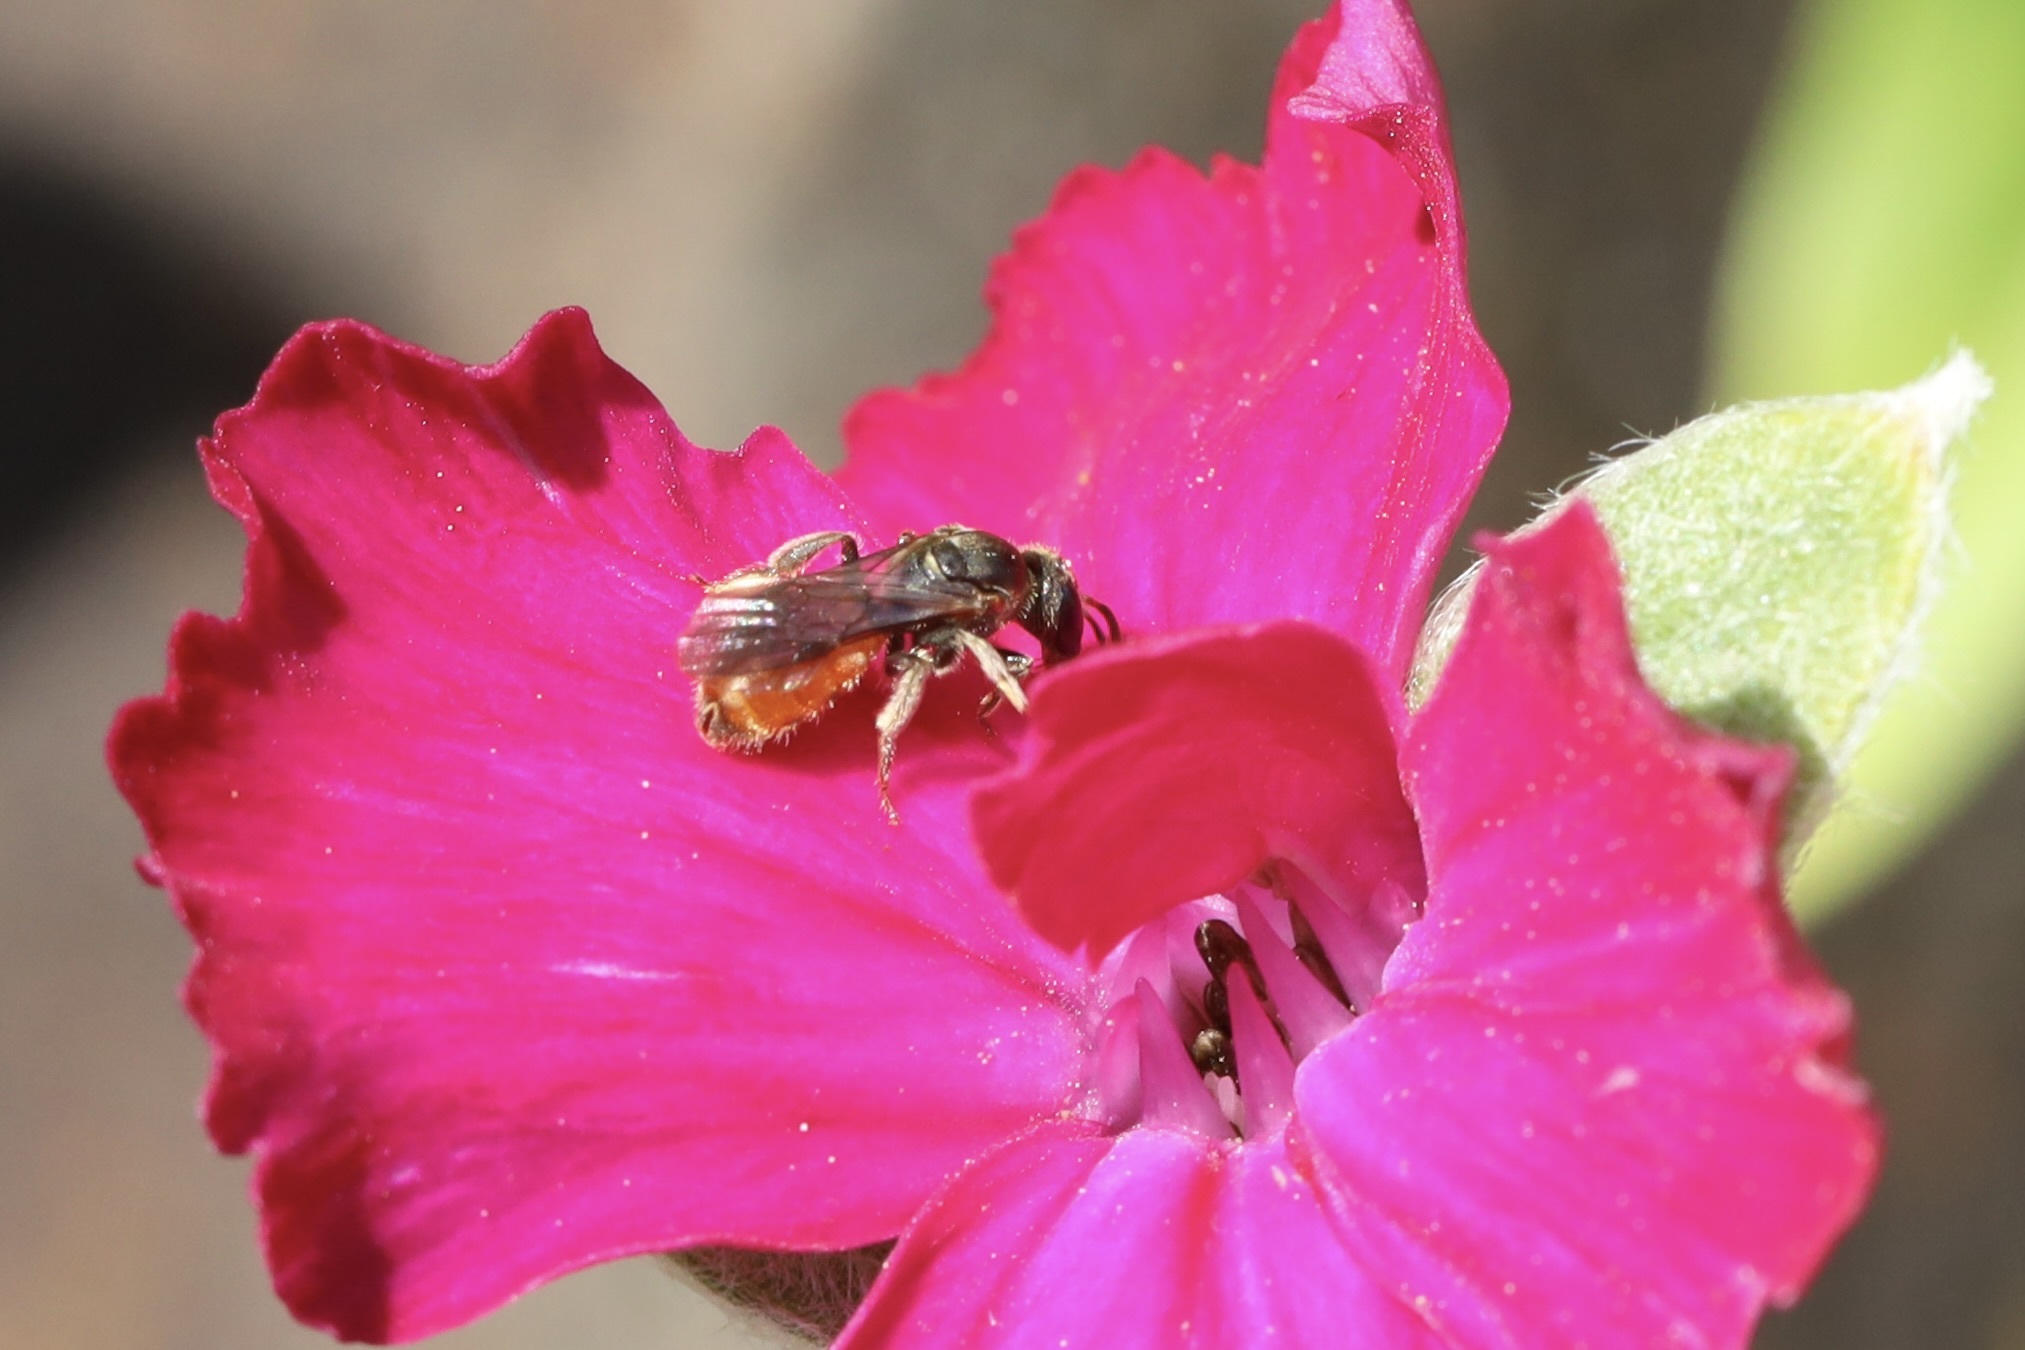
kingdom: Animalia
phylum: Arthropoda
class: Insecta
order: Hymenoptera
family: Halictidae
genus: Lasioglossum
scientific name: Lasioglossum ovaliceps
